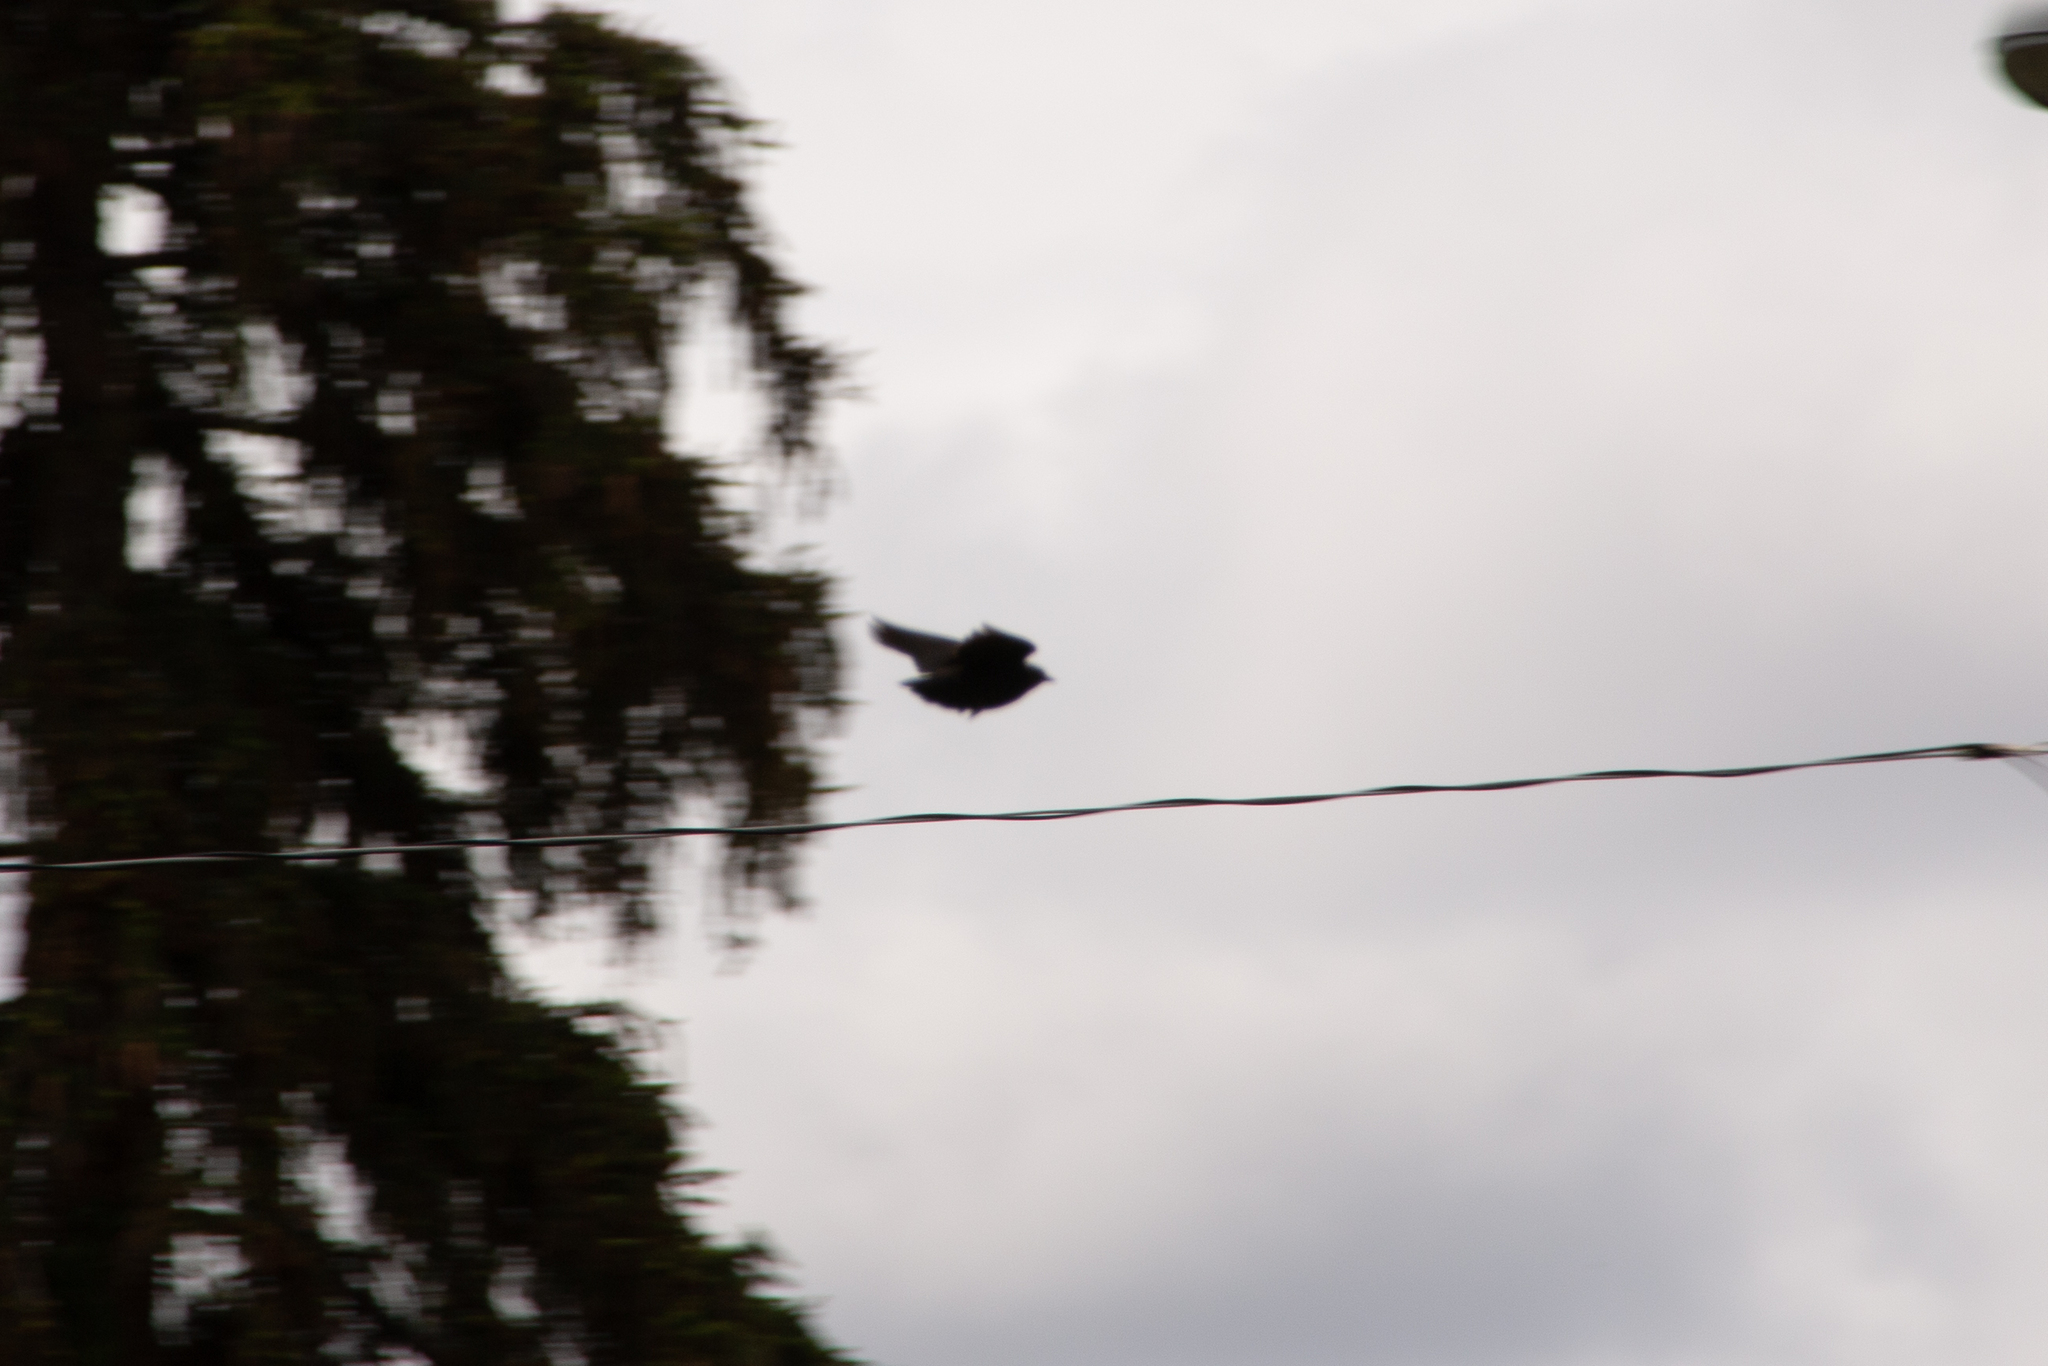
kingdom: Animalia
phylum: Chordata
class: Aves
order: Passeriformes
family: Sturnidae
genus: Sturnus
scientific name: Sturnus vulgaris
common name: Common starling
